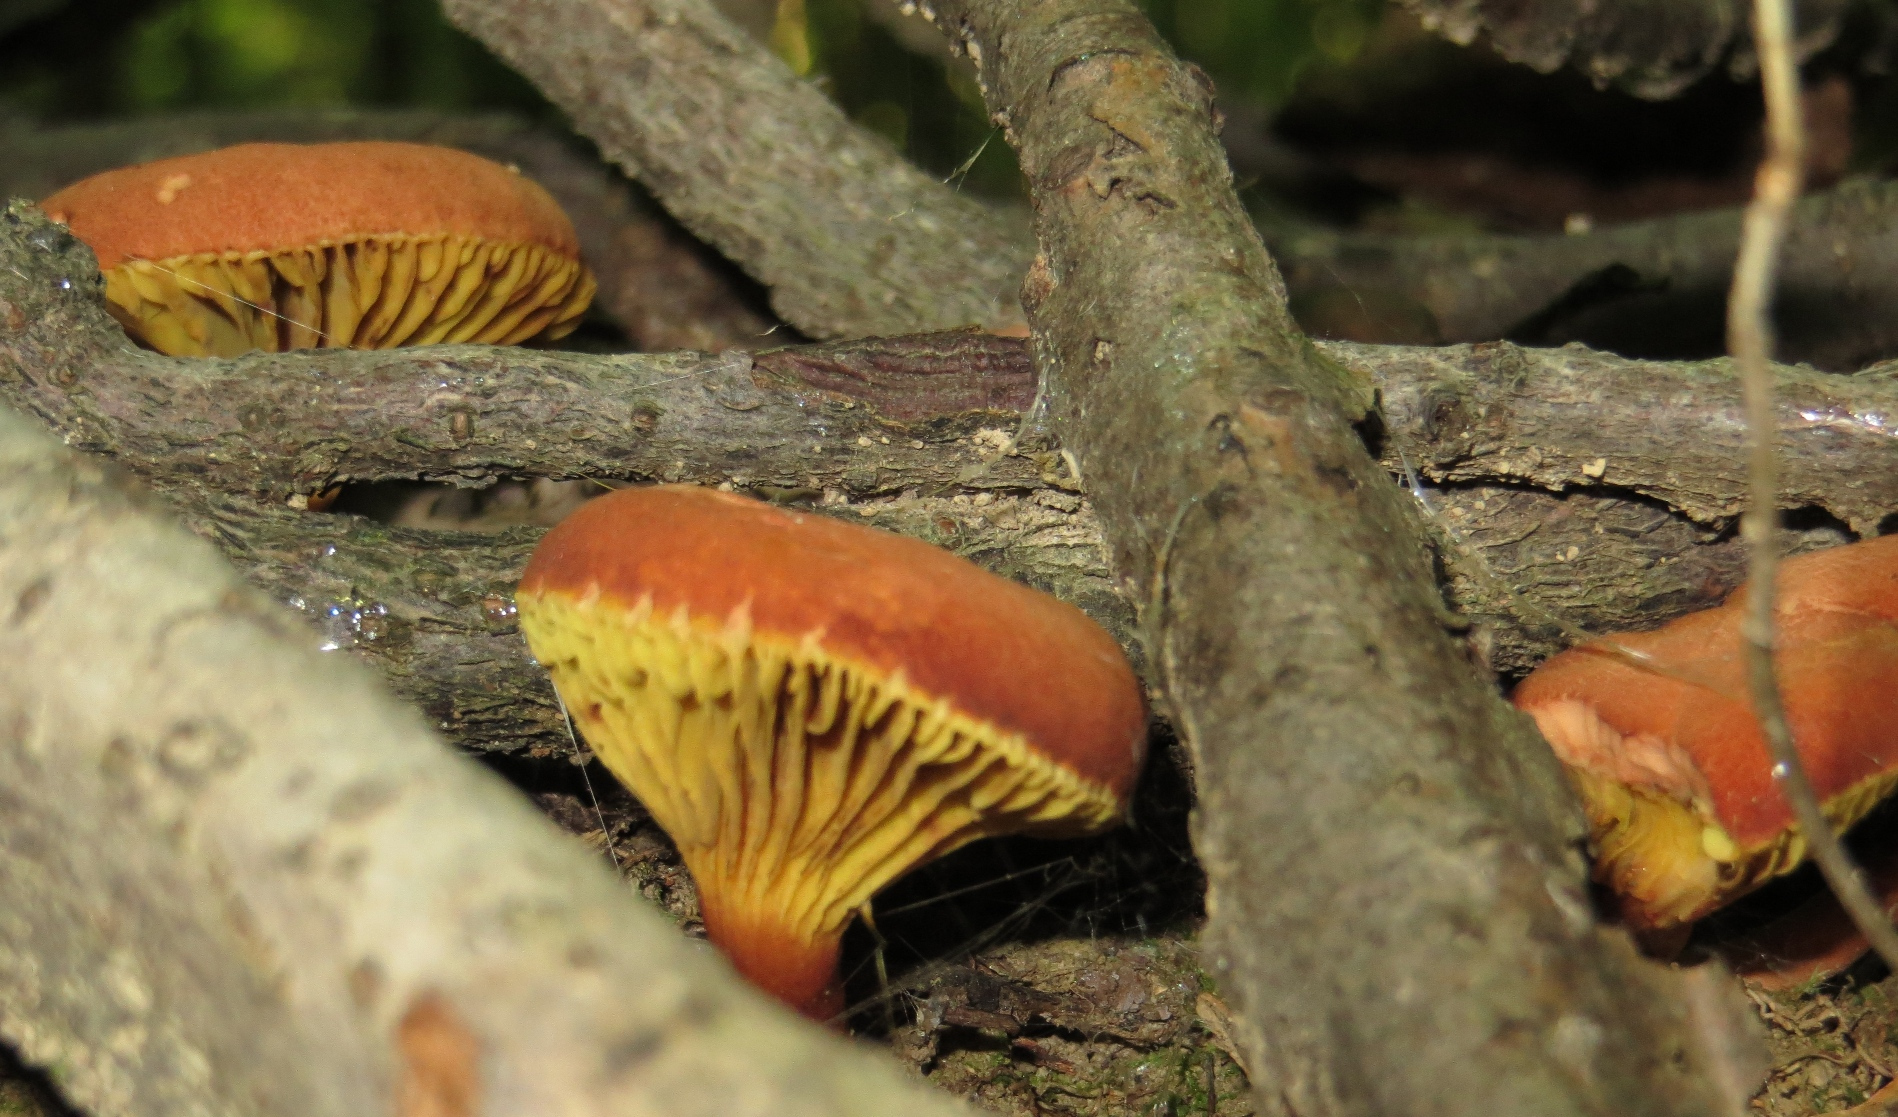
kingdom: Fungi
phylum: Basidiomycota
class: Agaricomycetes
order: Boletales
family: Boletaceae
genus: Phylloporus
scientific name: Phylloporus rhodoxanthus
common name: Golden gilled bolete
